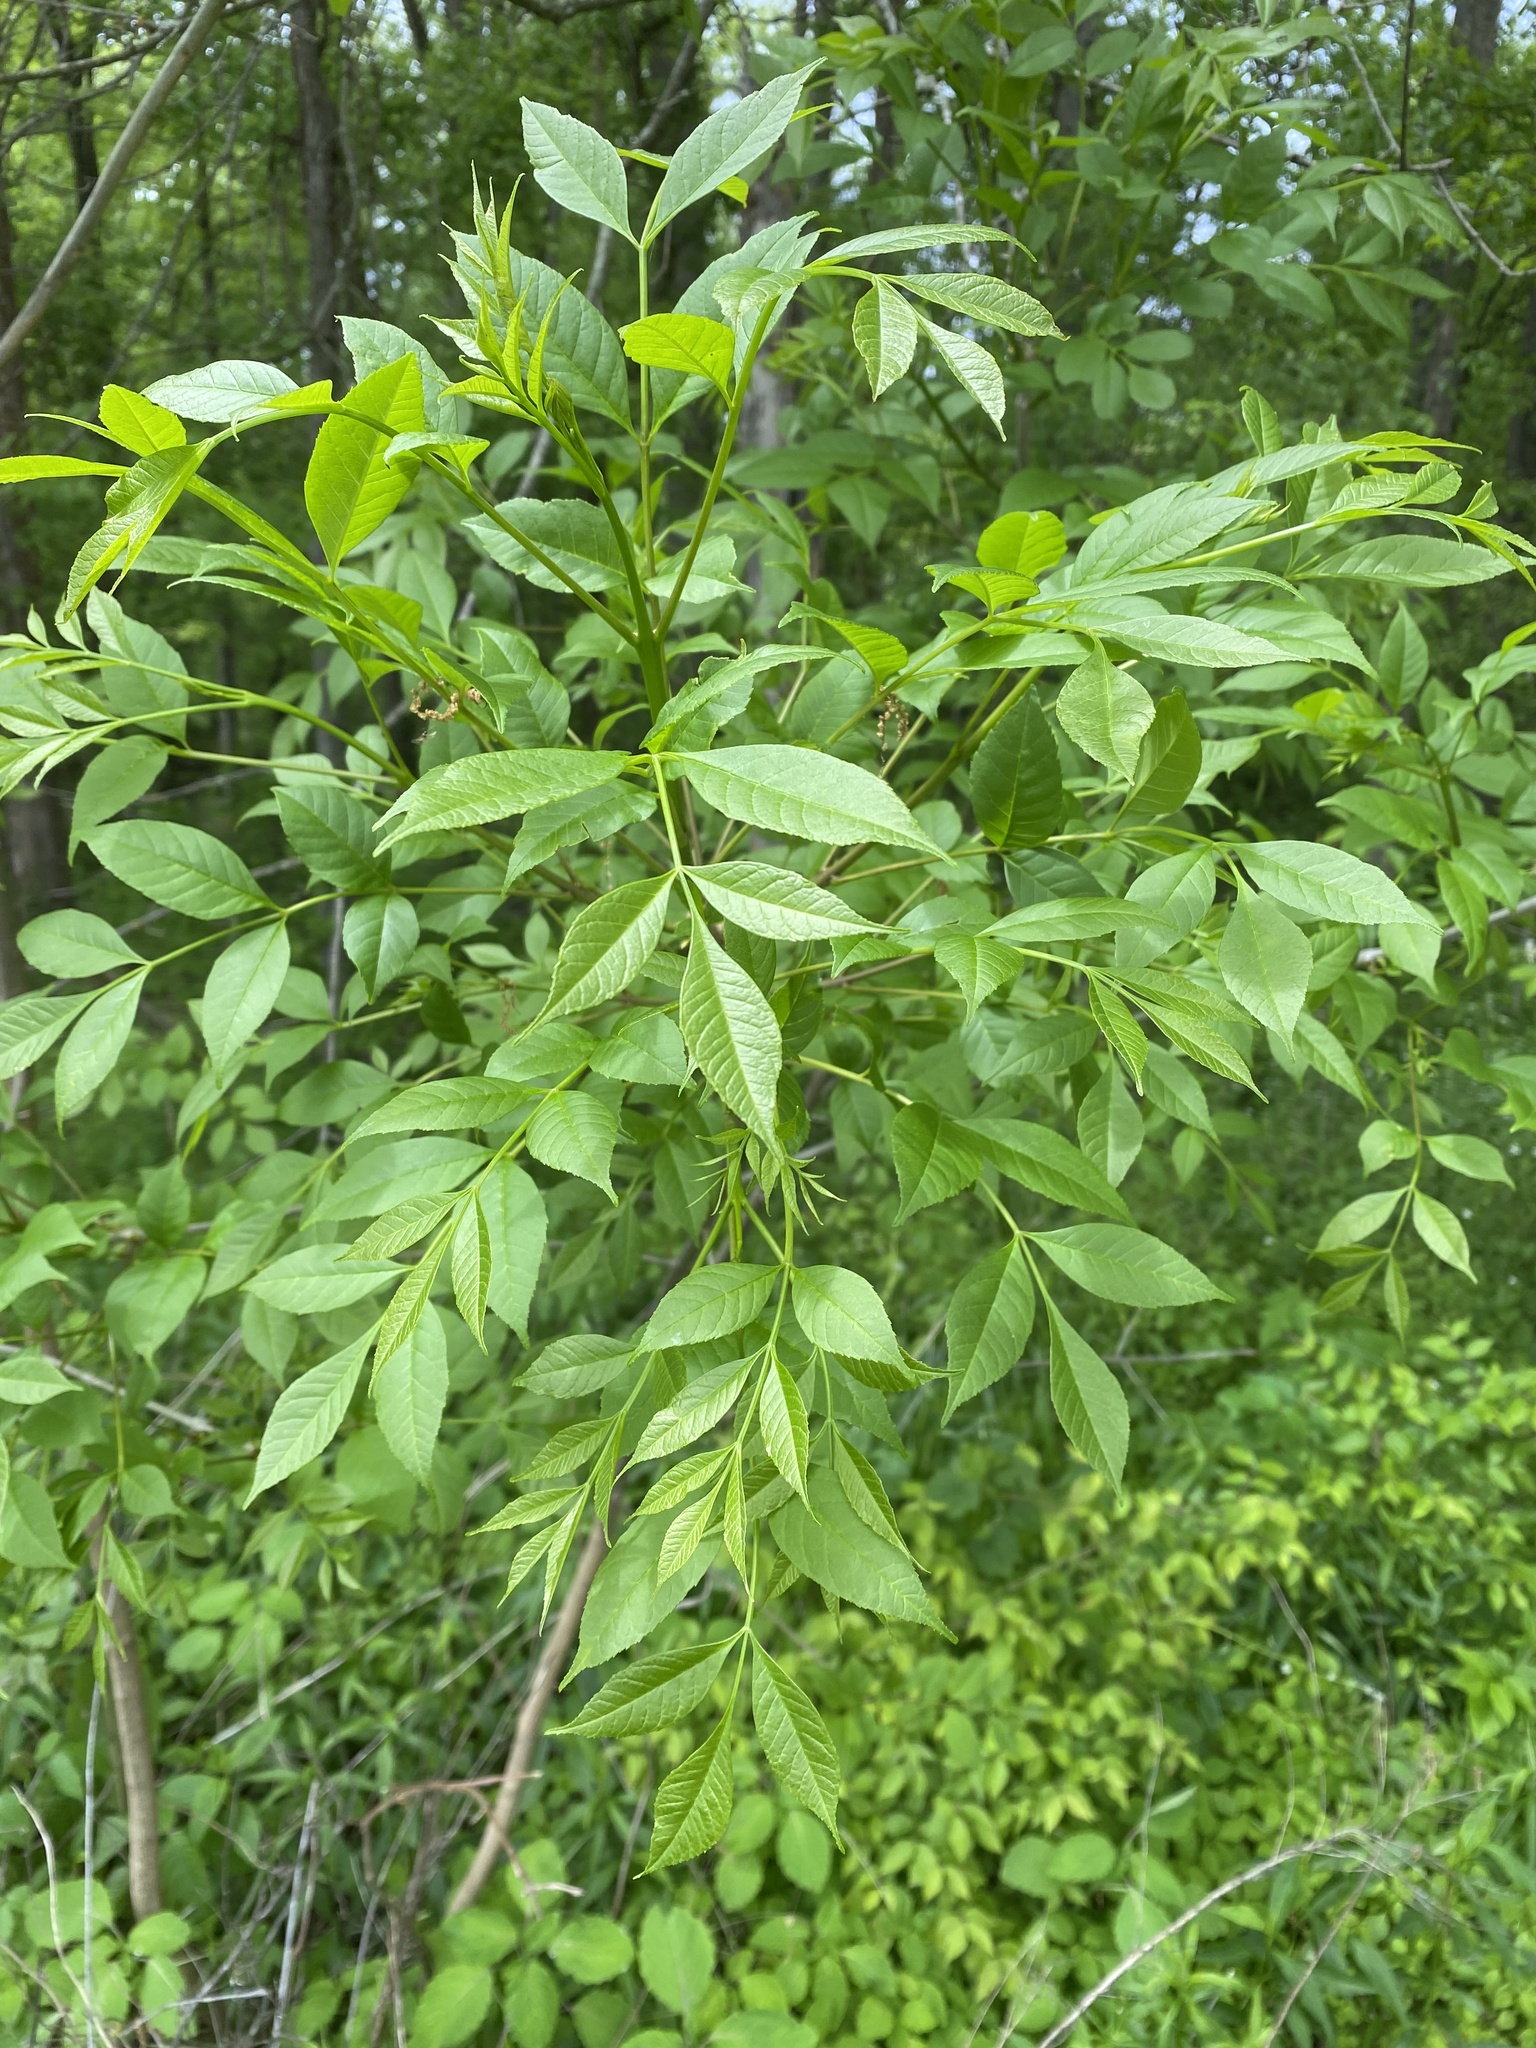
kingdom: Plantae
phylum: Tracheophyta
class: Magnoliopsida
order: Lamiales
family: Oleaceae
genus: Fraxinus
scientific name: Fraxinus pennsylvanica
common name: Green ash
